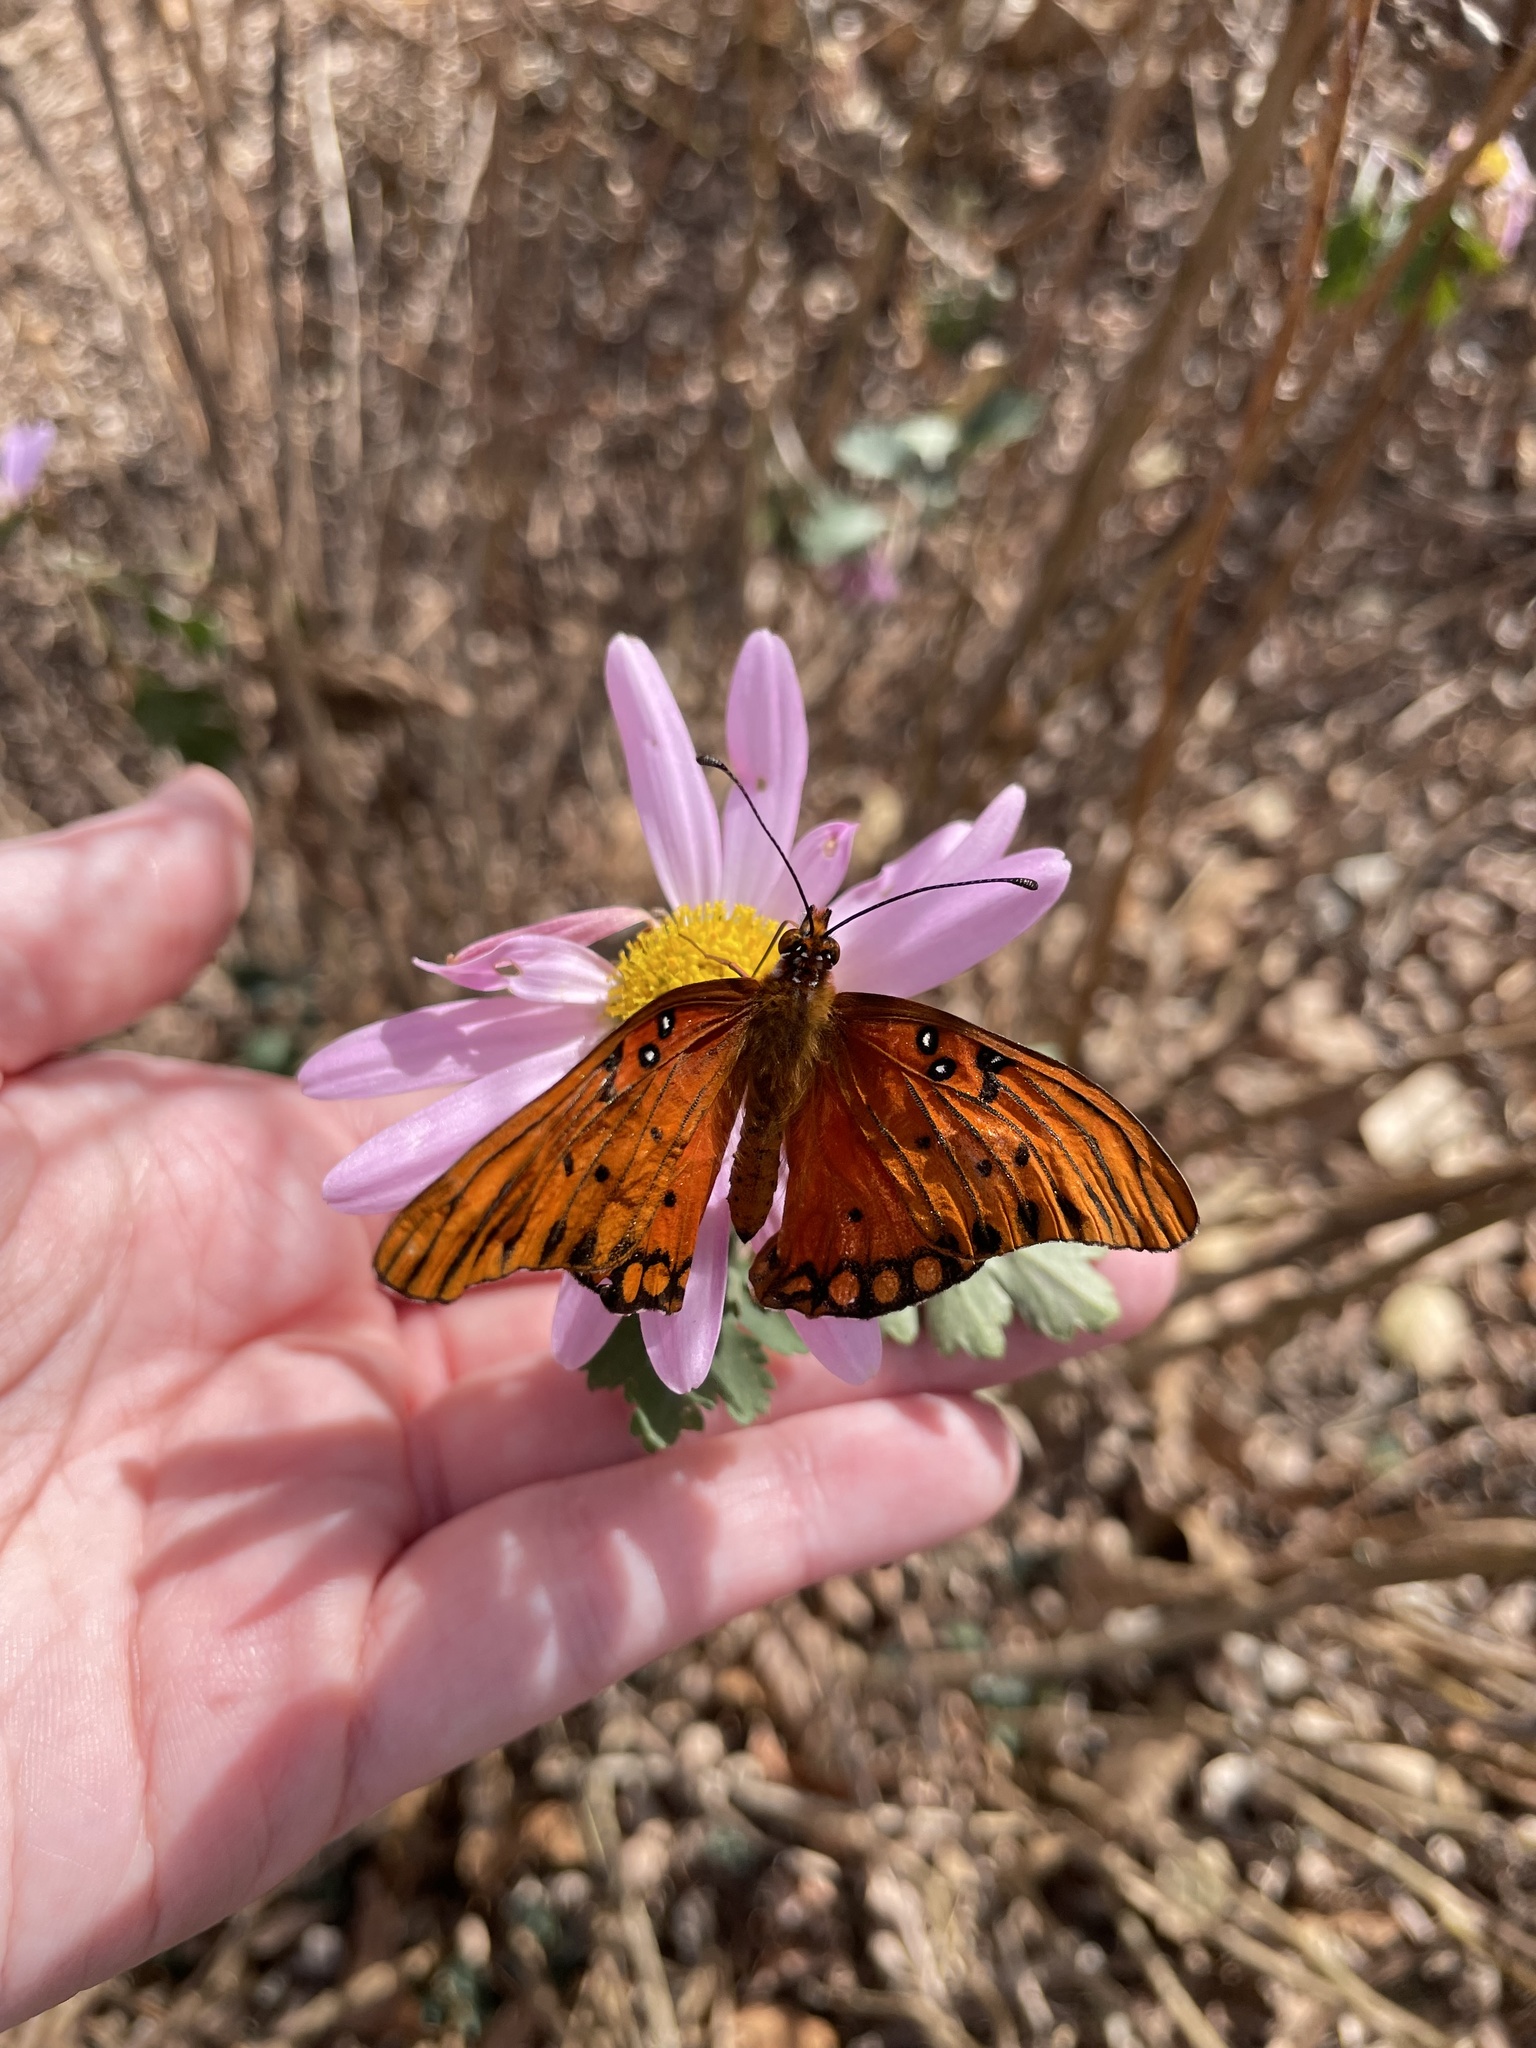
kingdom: Animalia
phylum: Arthropoda
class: Insecta
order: Lepidoptera
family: Nymphalidae
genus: Dione
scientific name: Dione vanillae
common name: Gulf fritillary
